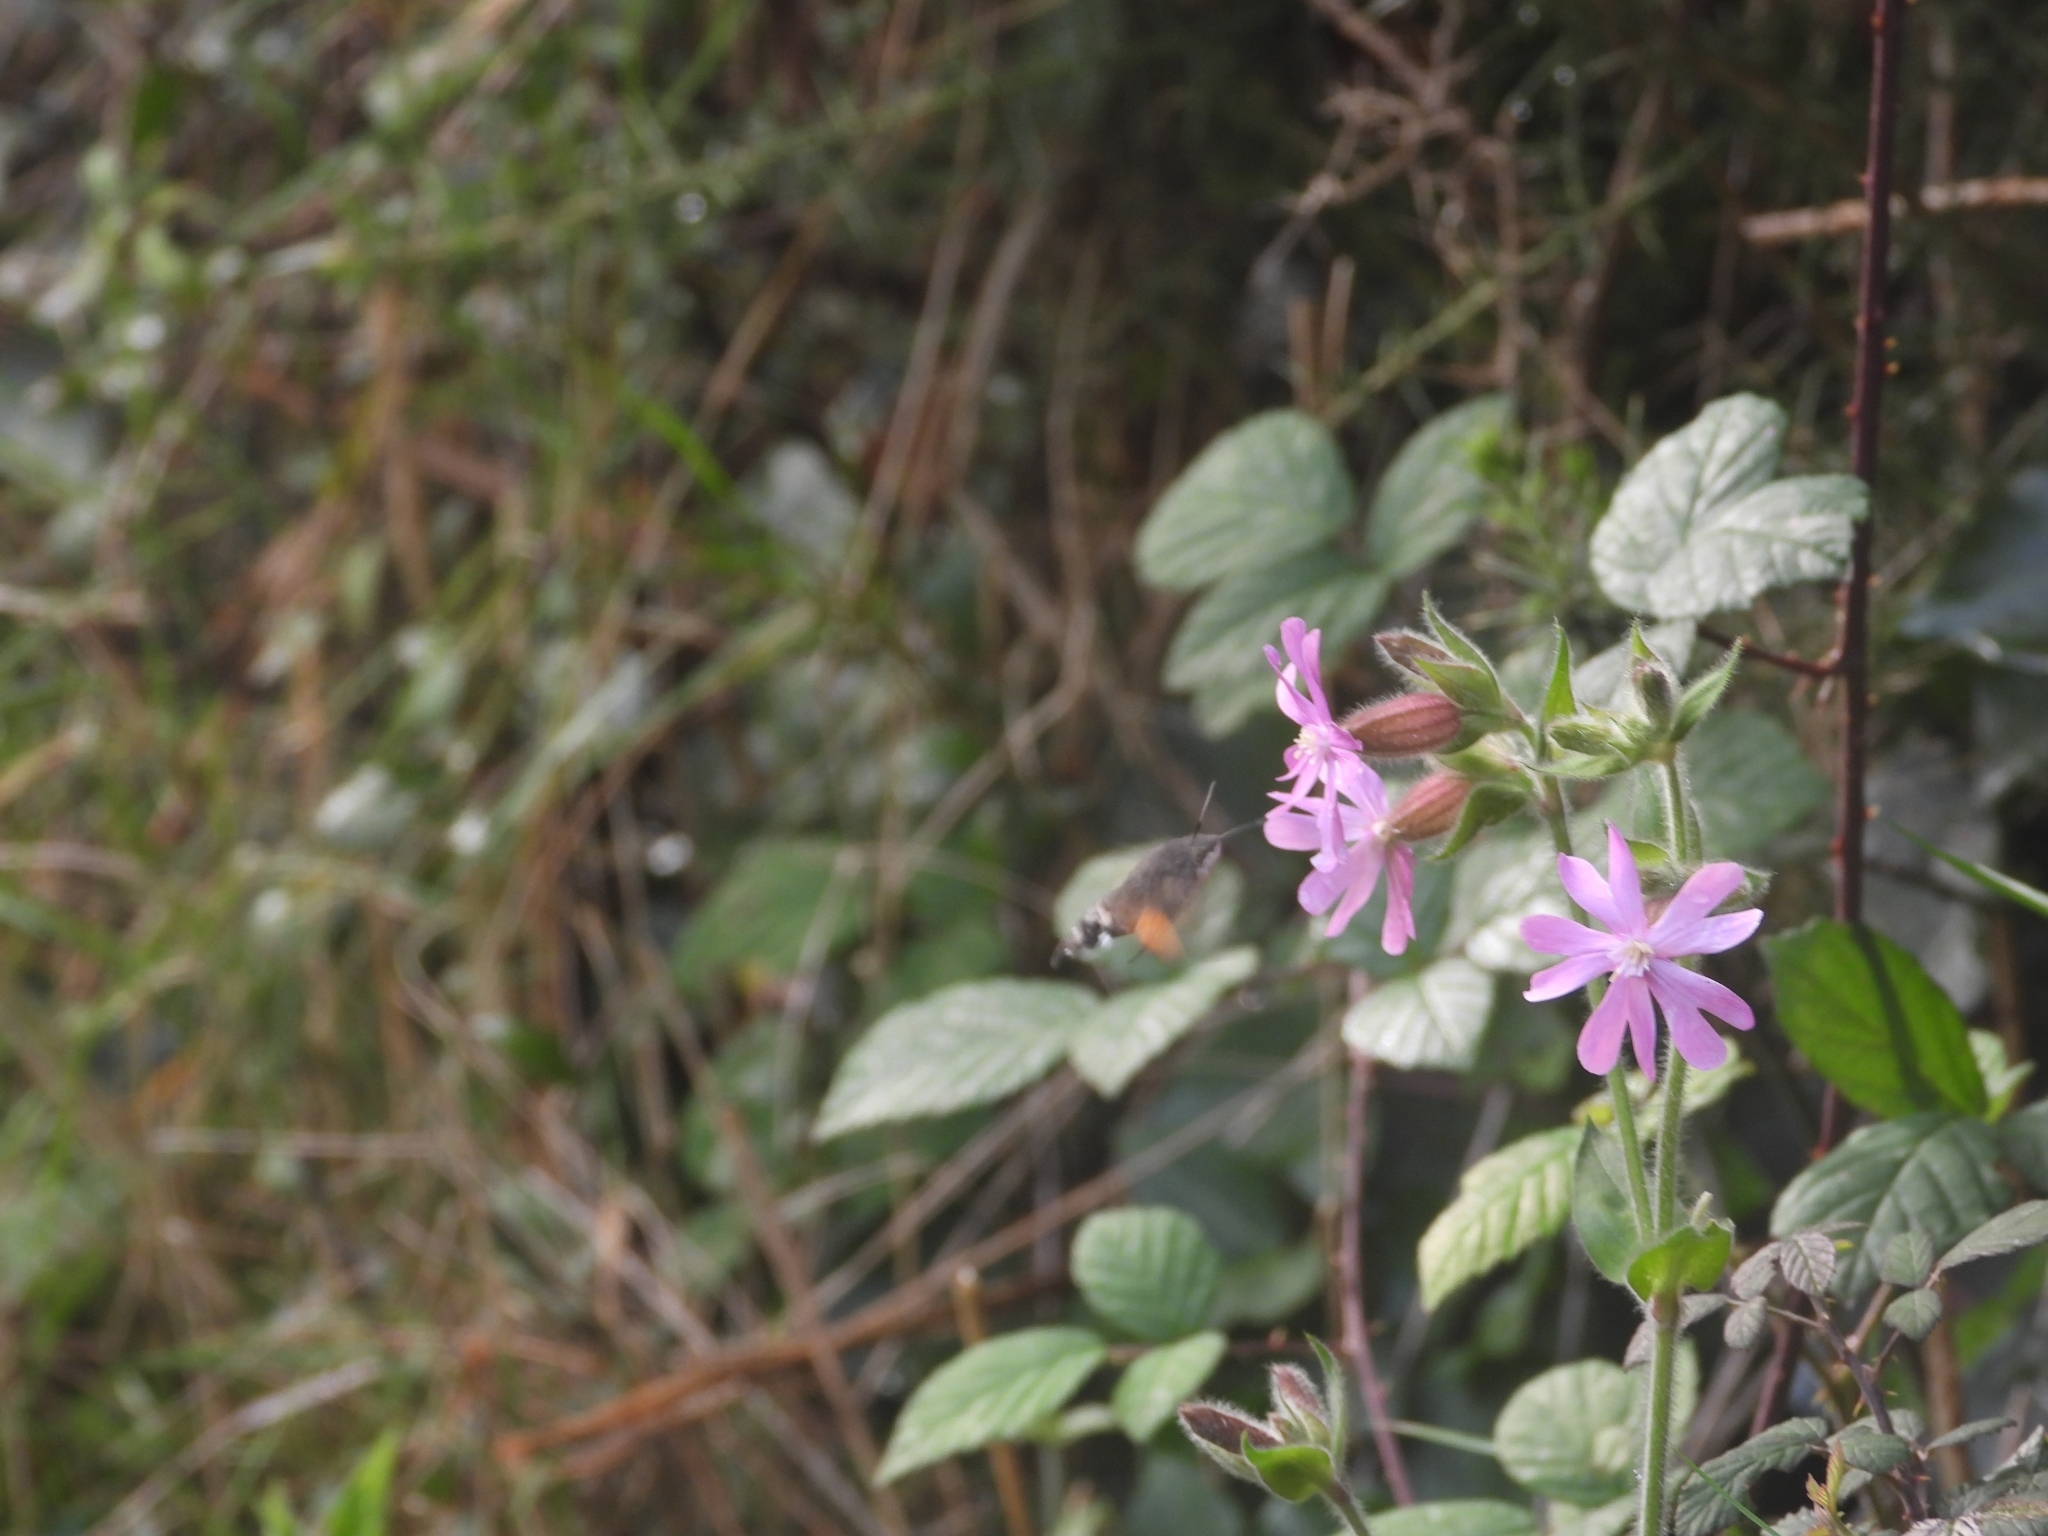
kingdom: Animalia
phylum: Arthropoda
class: Insecta
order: Lepidoptera
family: Sphingidae
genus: Macroglossum
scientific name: Macroglossum stellatarum
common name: Humming-bird hawk-moth
